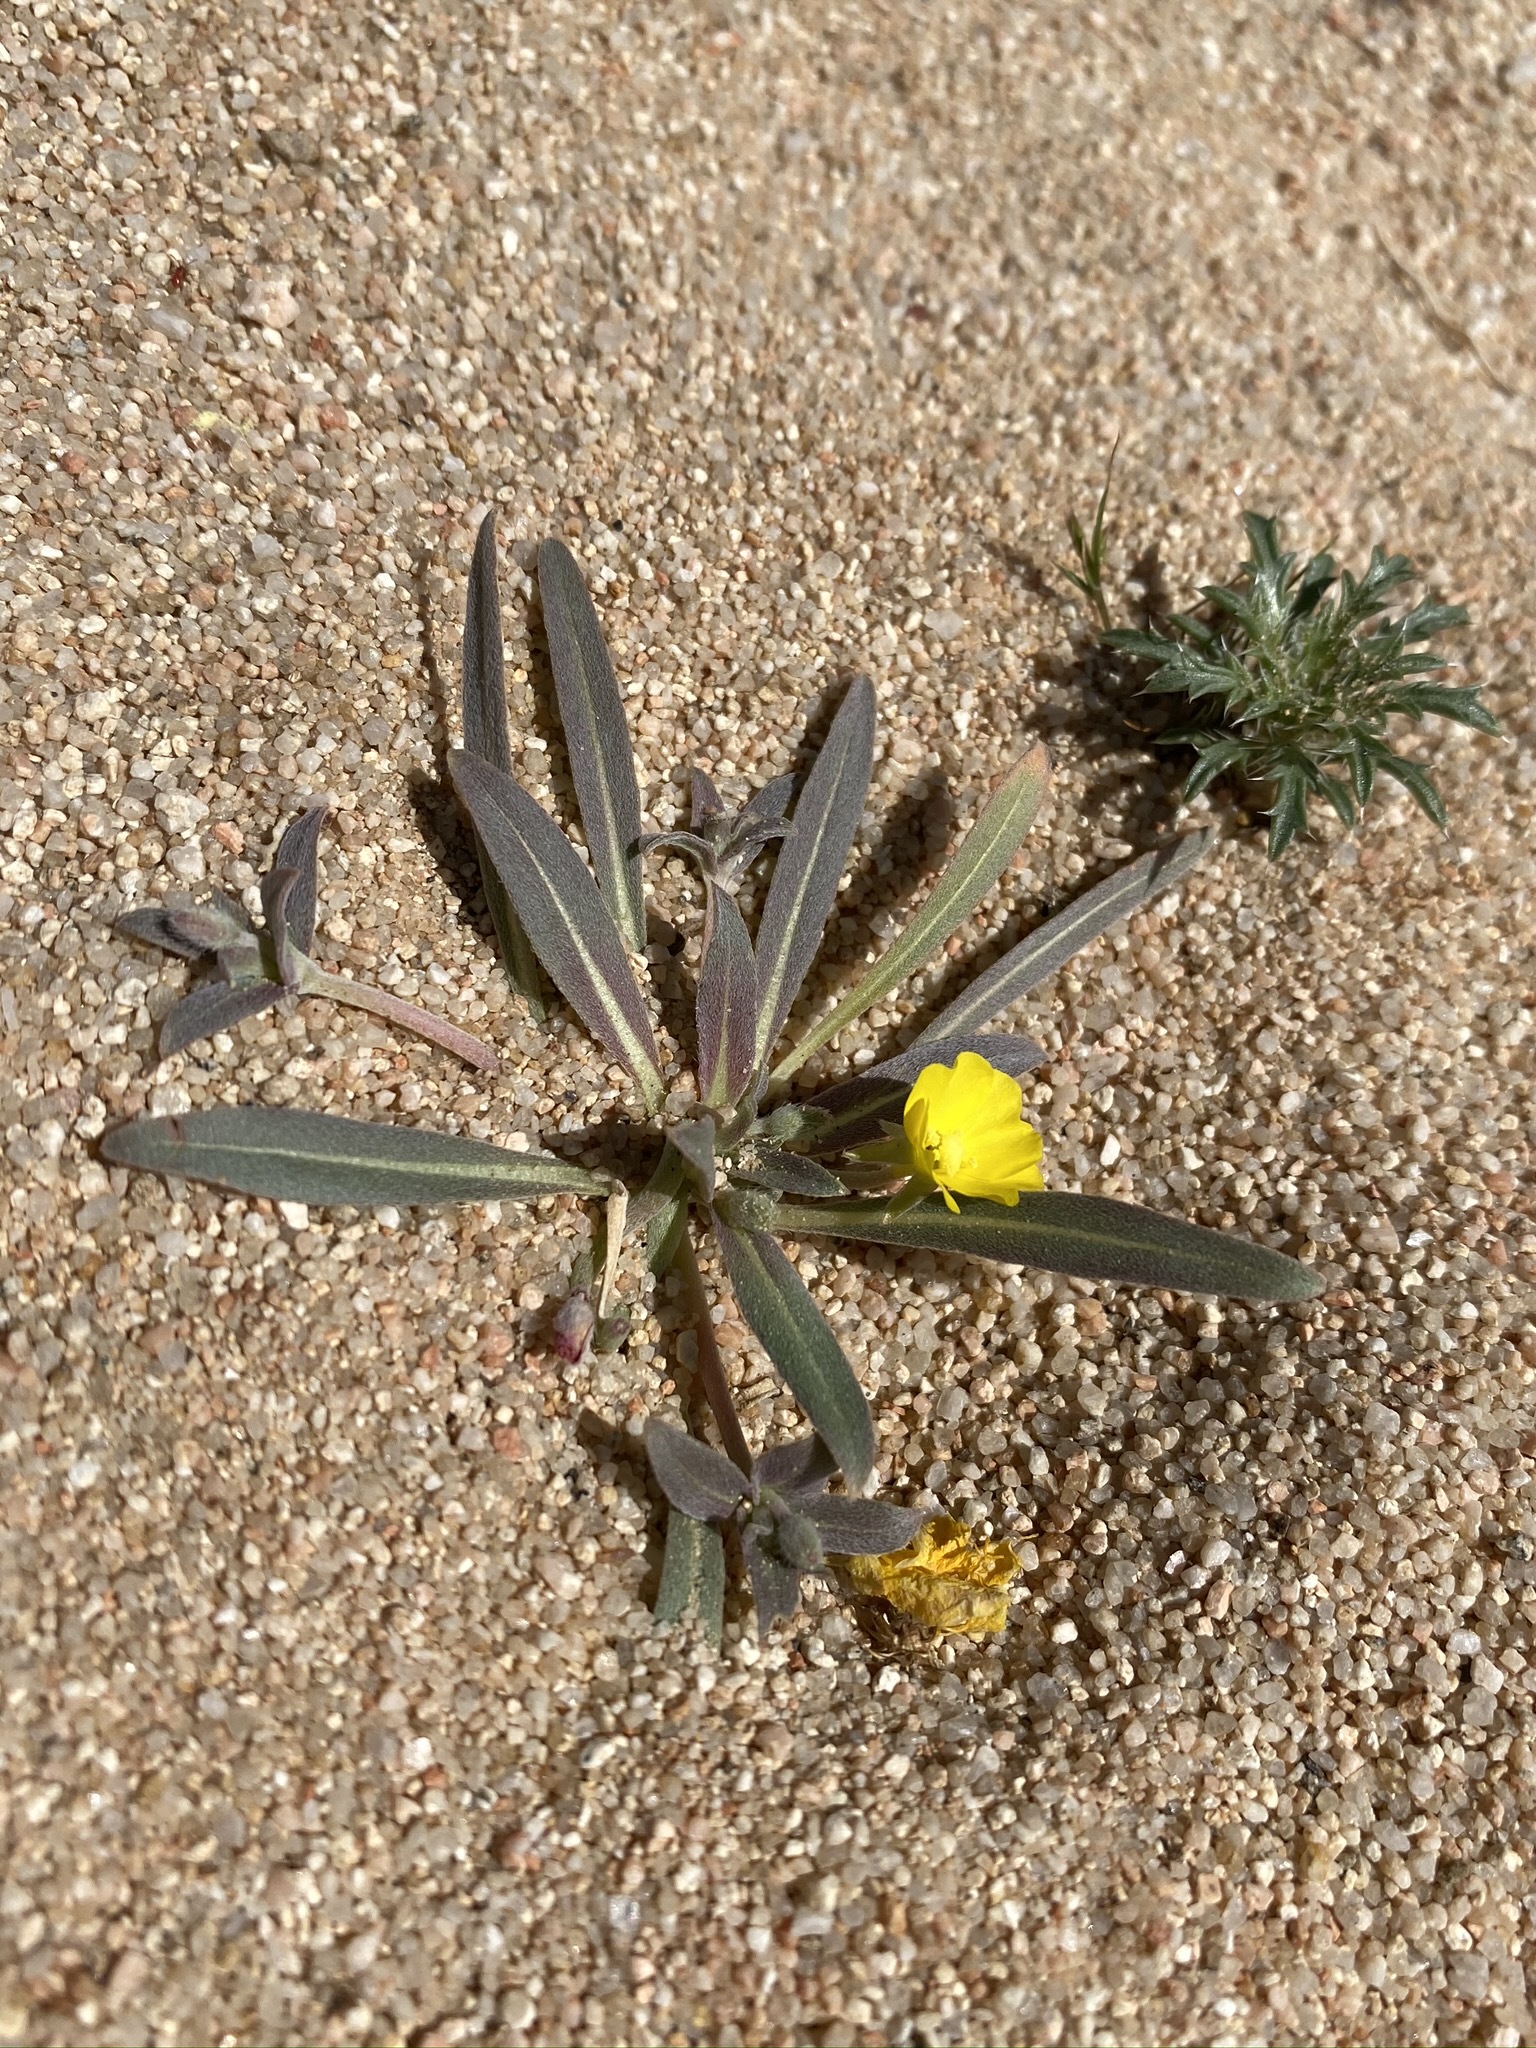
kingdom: Plantae
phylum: Tracheophyta
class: Magnoliopsida
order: Myrtales
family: Onagraceae
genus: Camissoniopsis
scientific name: Camissoniopsis pallida
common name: Paleyellow suncup
